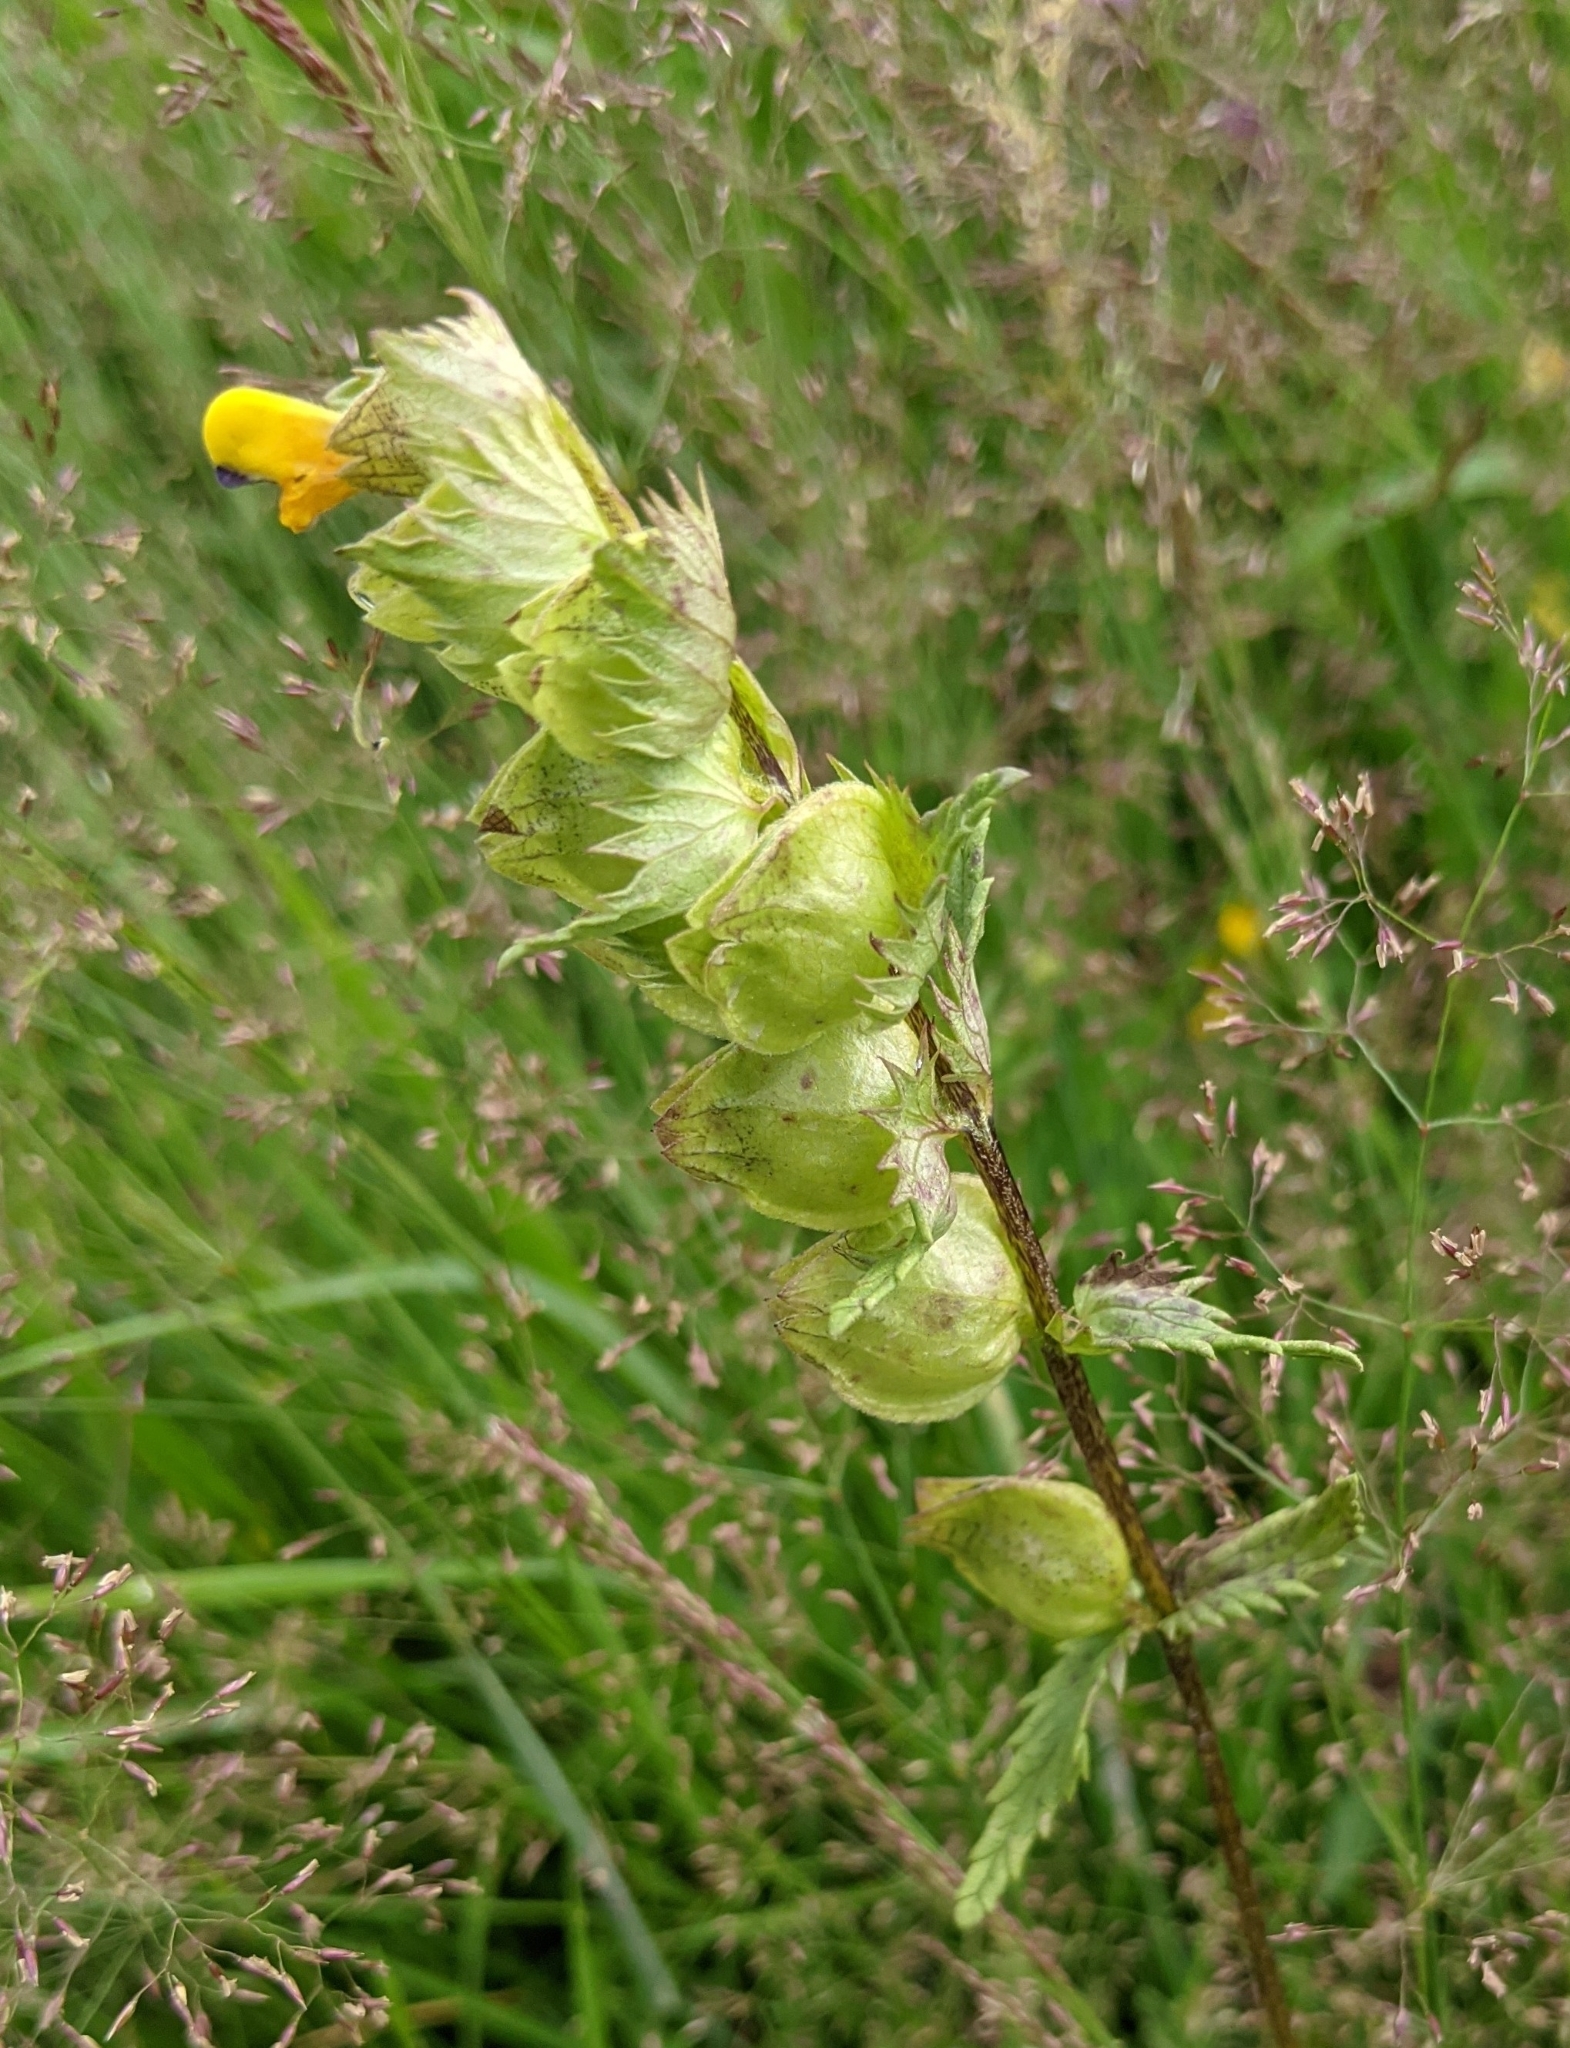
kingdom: Plantae
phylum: Tracheophyta
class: Magnoliopsida
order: Lamiales
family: Orobanchaceae
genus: Rhinanthus
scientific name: Rhinanthus minor
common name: Yellow-rattle
